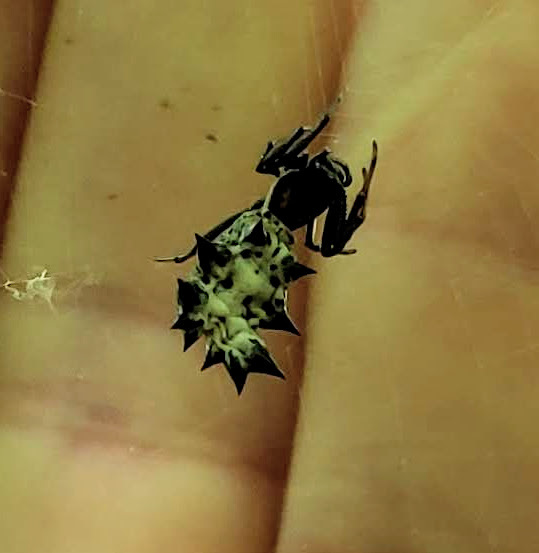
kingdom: Animalia
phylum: Arthropoda
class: Arachnida
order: Araneae
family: Araneidae
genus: Micrathena
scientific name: Micrathena gracilis
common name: Orb weavers
